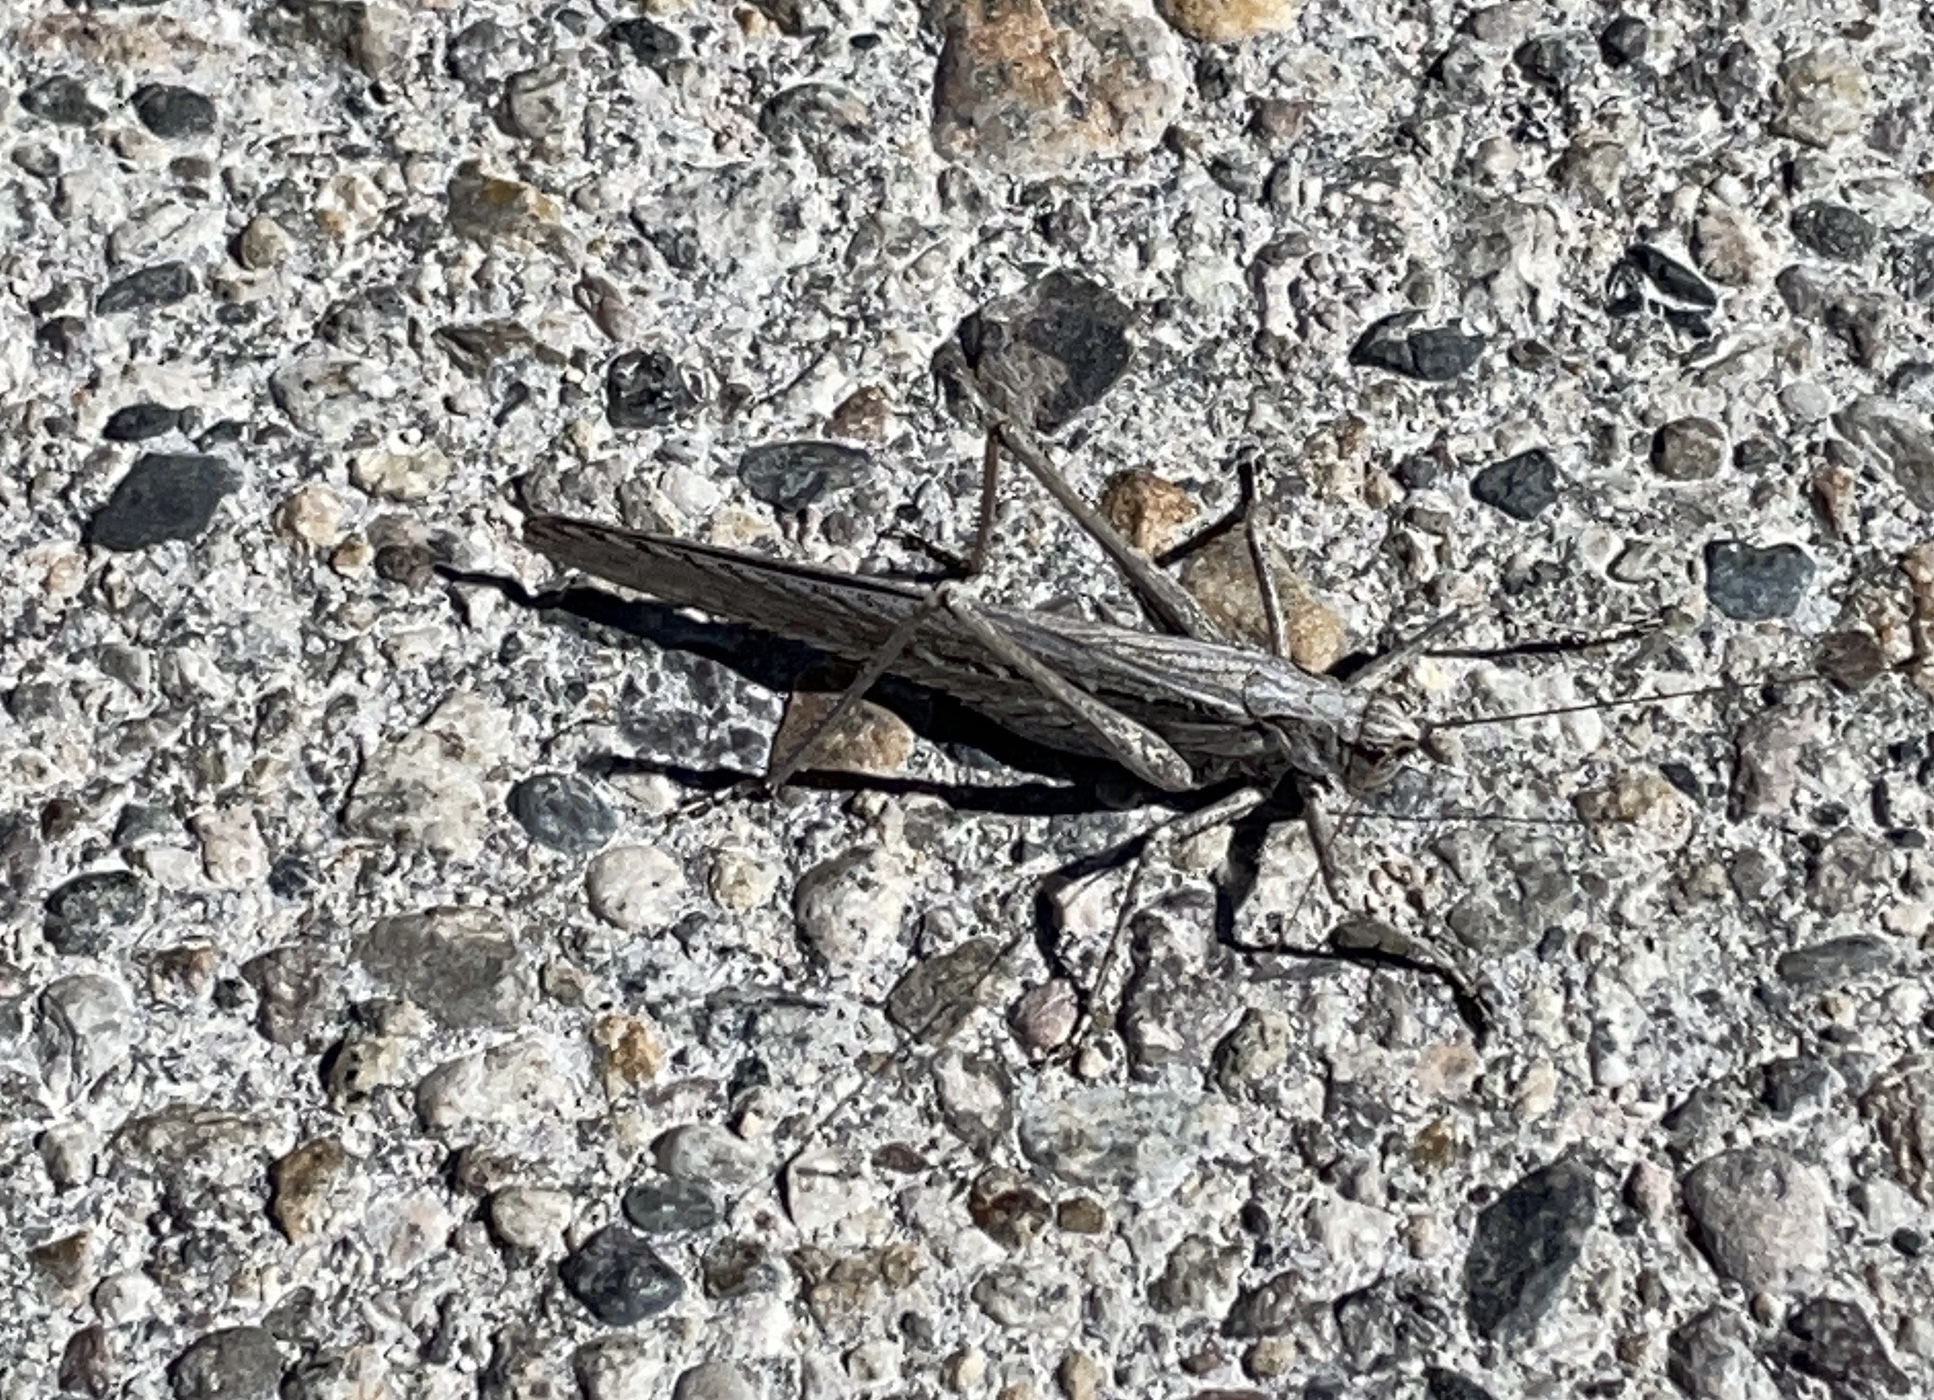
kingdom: Animalia
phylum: Arthropoda
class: Insecta
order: Orthoptera
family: Tettigoniidae
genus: Capnobotes
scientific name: Capnobotes fuliginosus
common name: Sooty longwing
